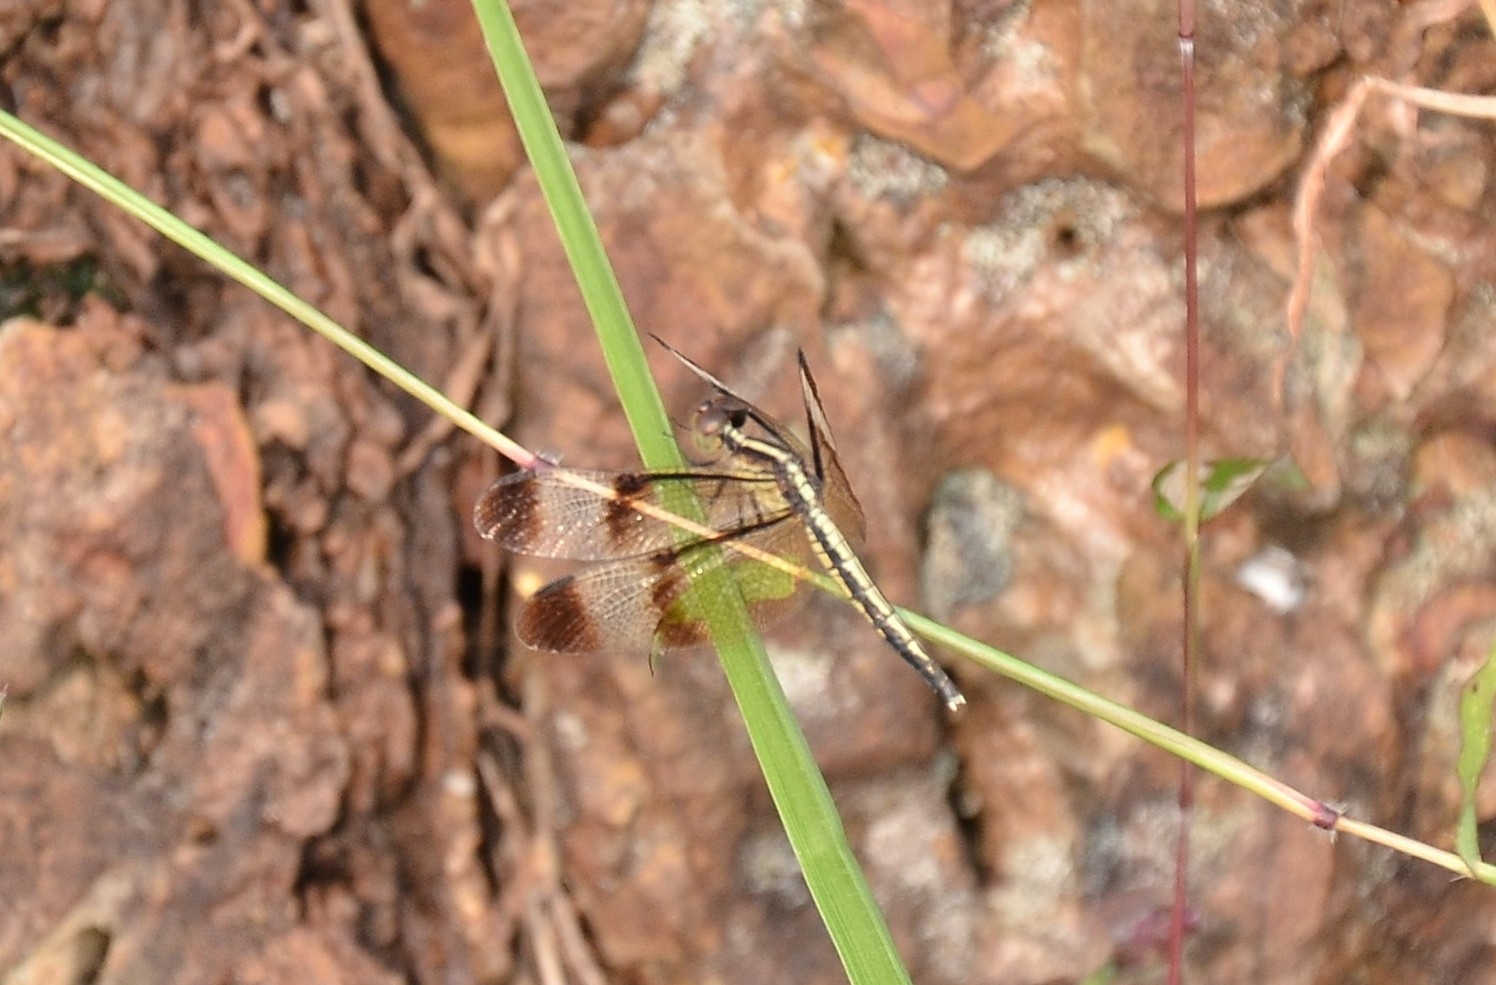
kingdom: Animalia
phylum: Arthropoda
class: Insecta
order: Odonata
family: Libellulidae
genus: Neurothemis
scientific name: Neurothemis tullia
